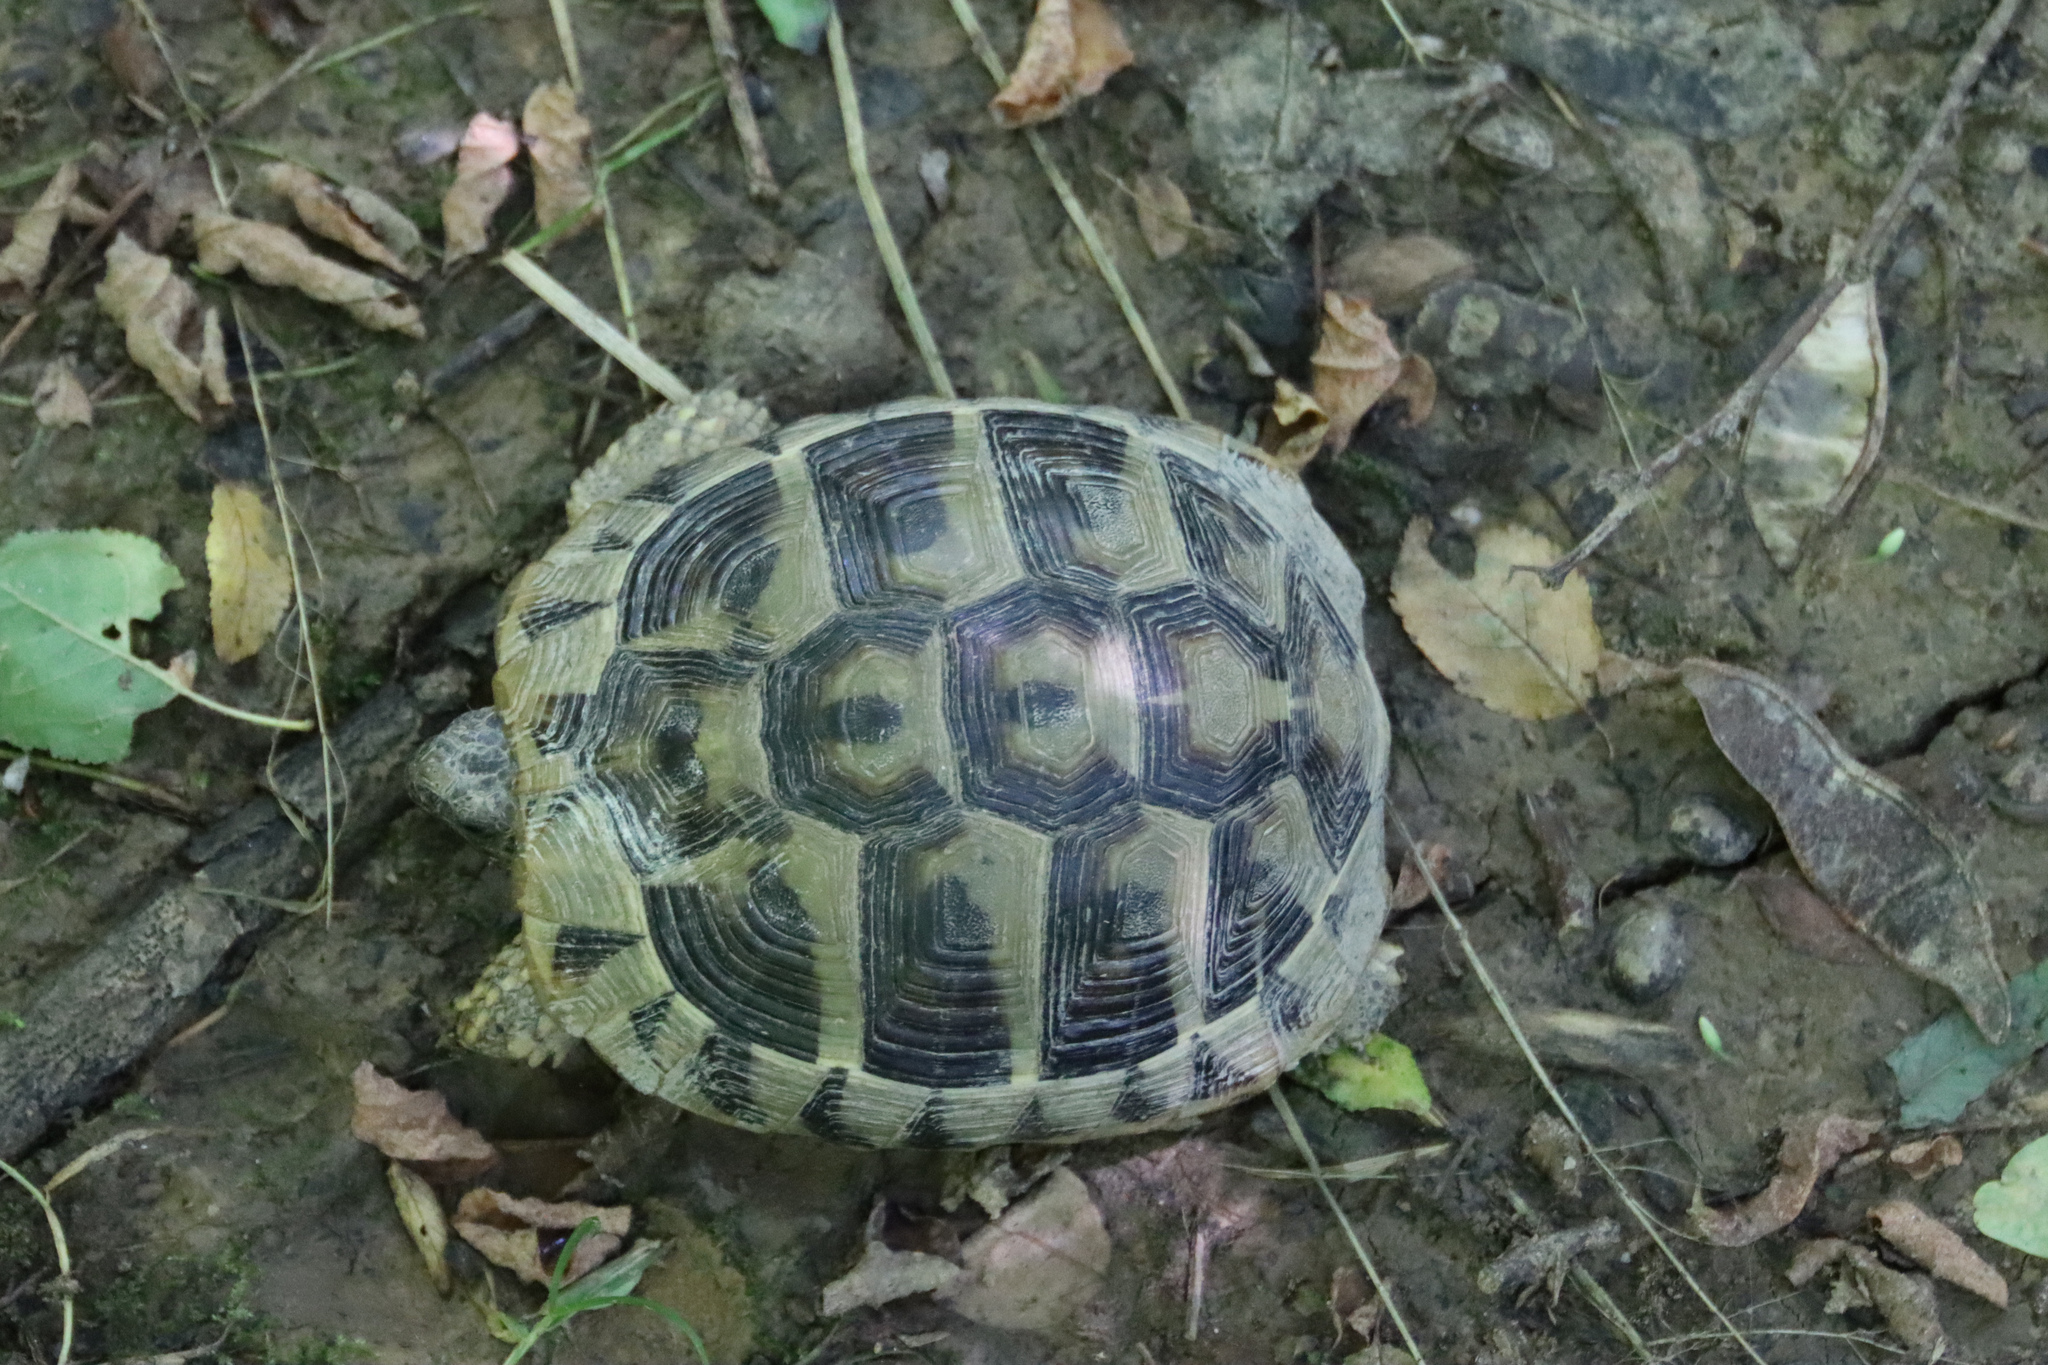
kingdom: Animalia
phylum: Chordata
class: Testudines
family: Testudinidae
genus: Testudo
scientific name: Testudo hermanni
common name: Hermann's tortoise
